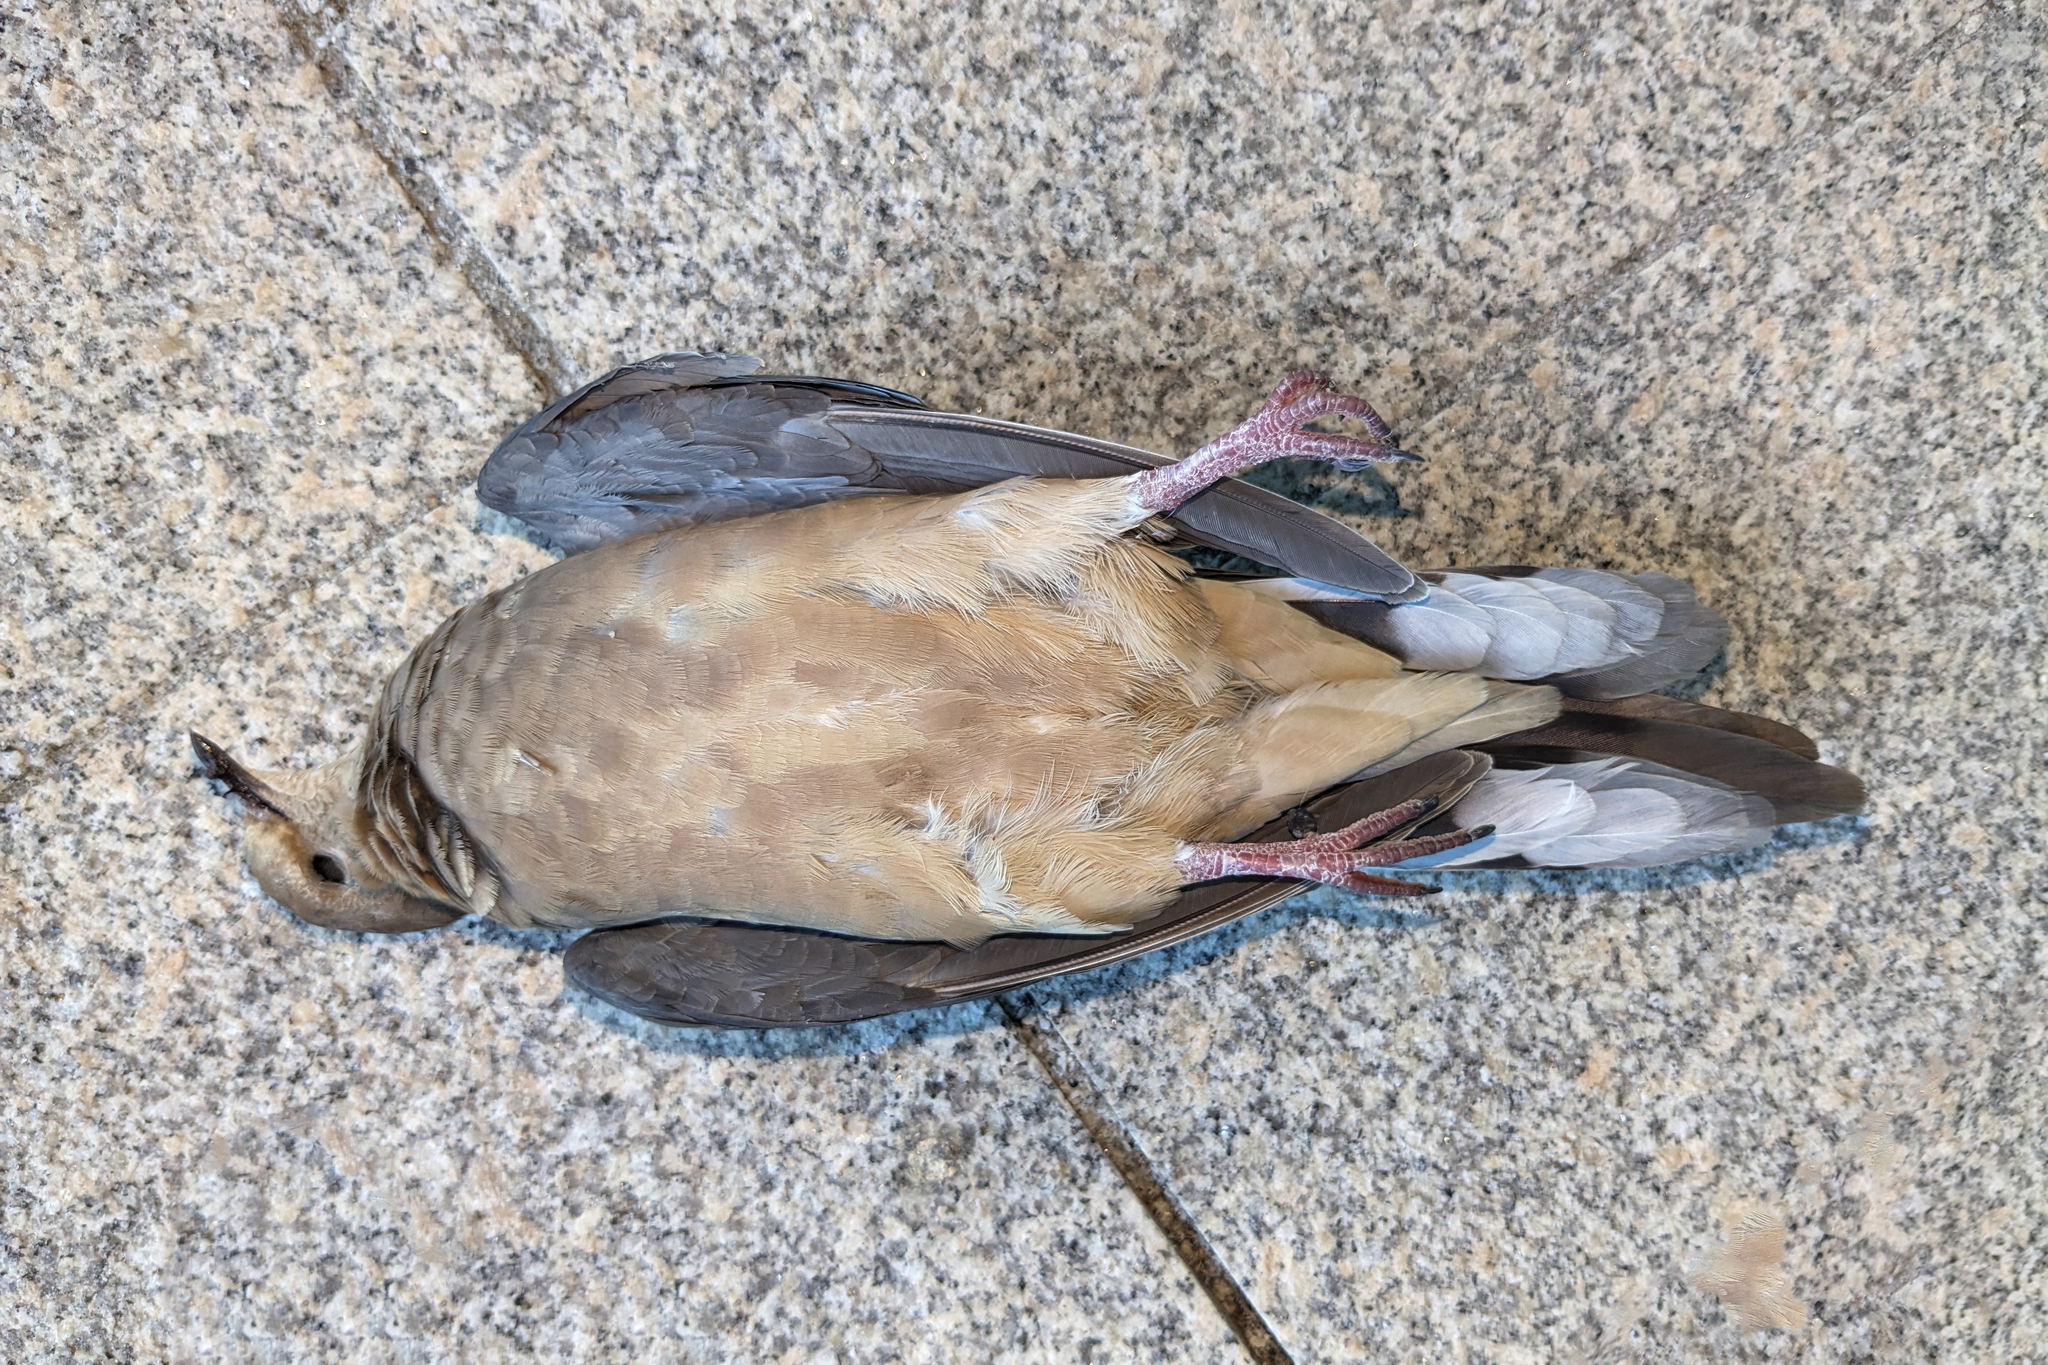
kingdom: Animalia
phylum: Chordata
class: Aves
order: Columbiformes
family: Columbidae
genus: Zenaida
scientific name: Zenaida macroura
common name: Mourning dove
